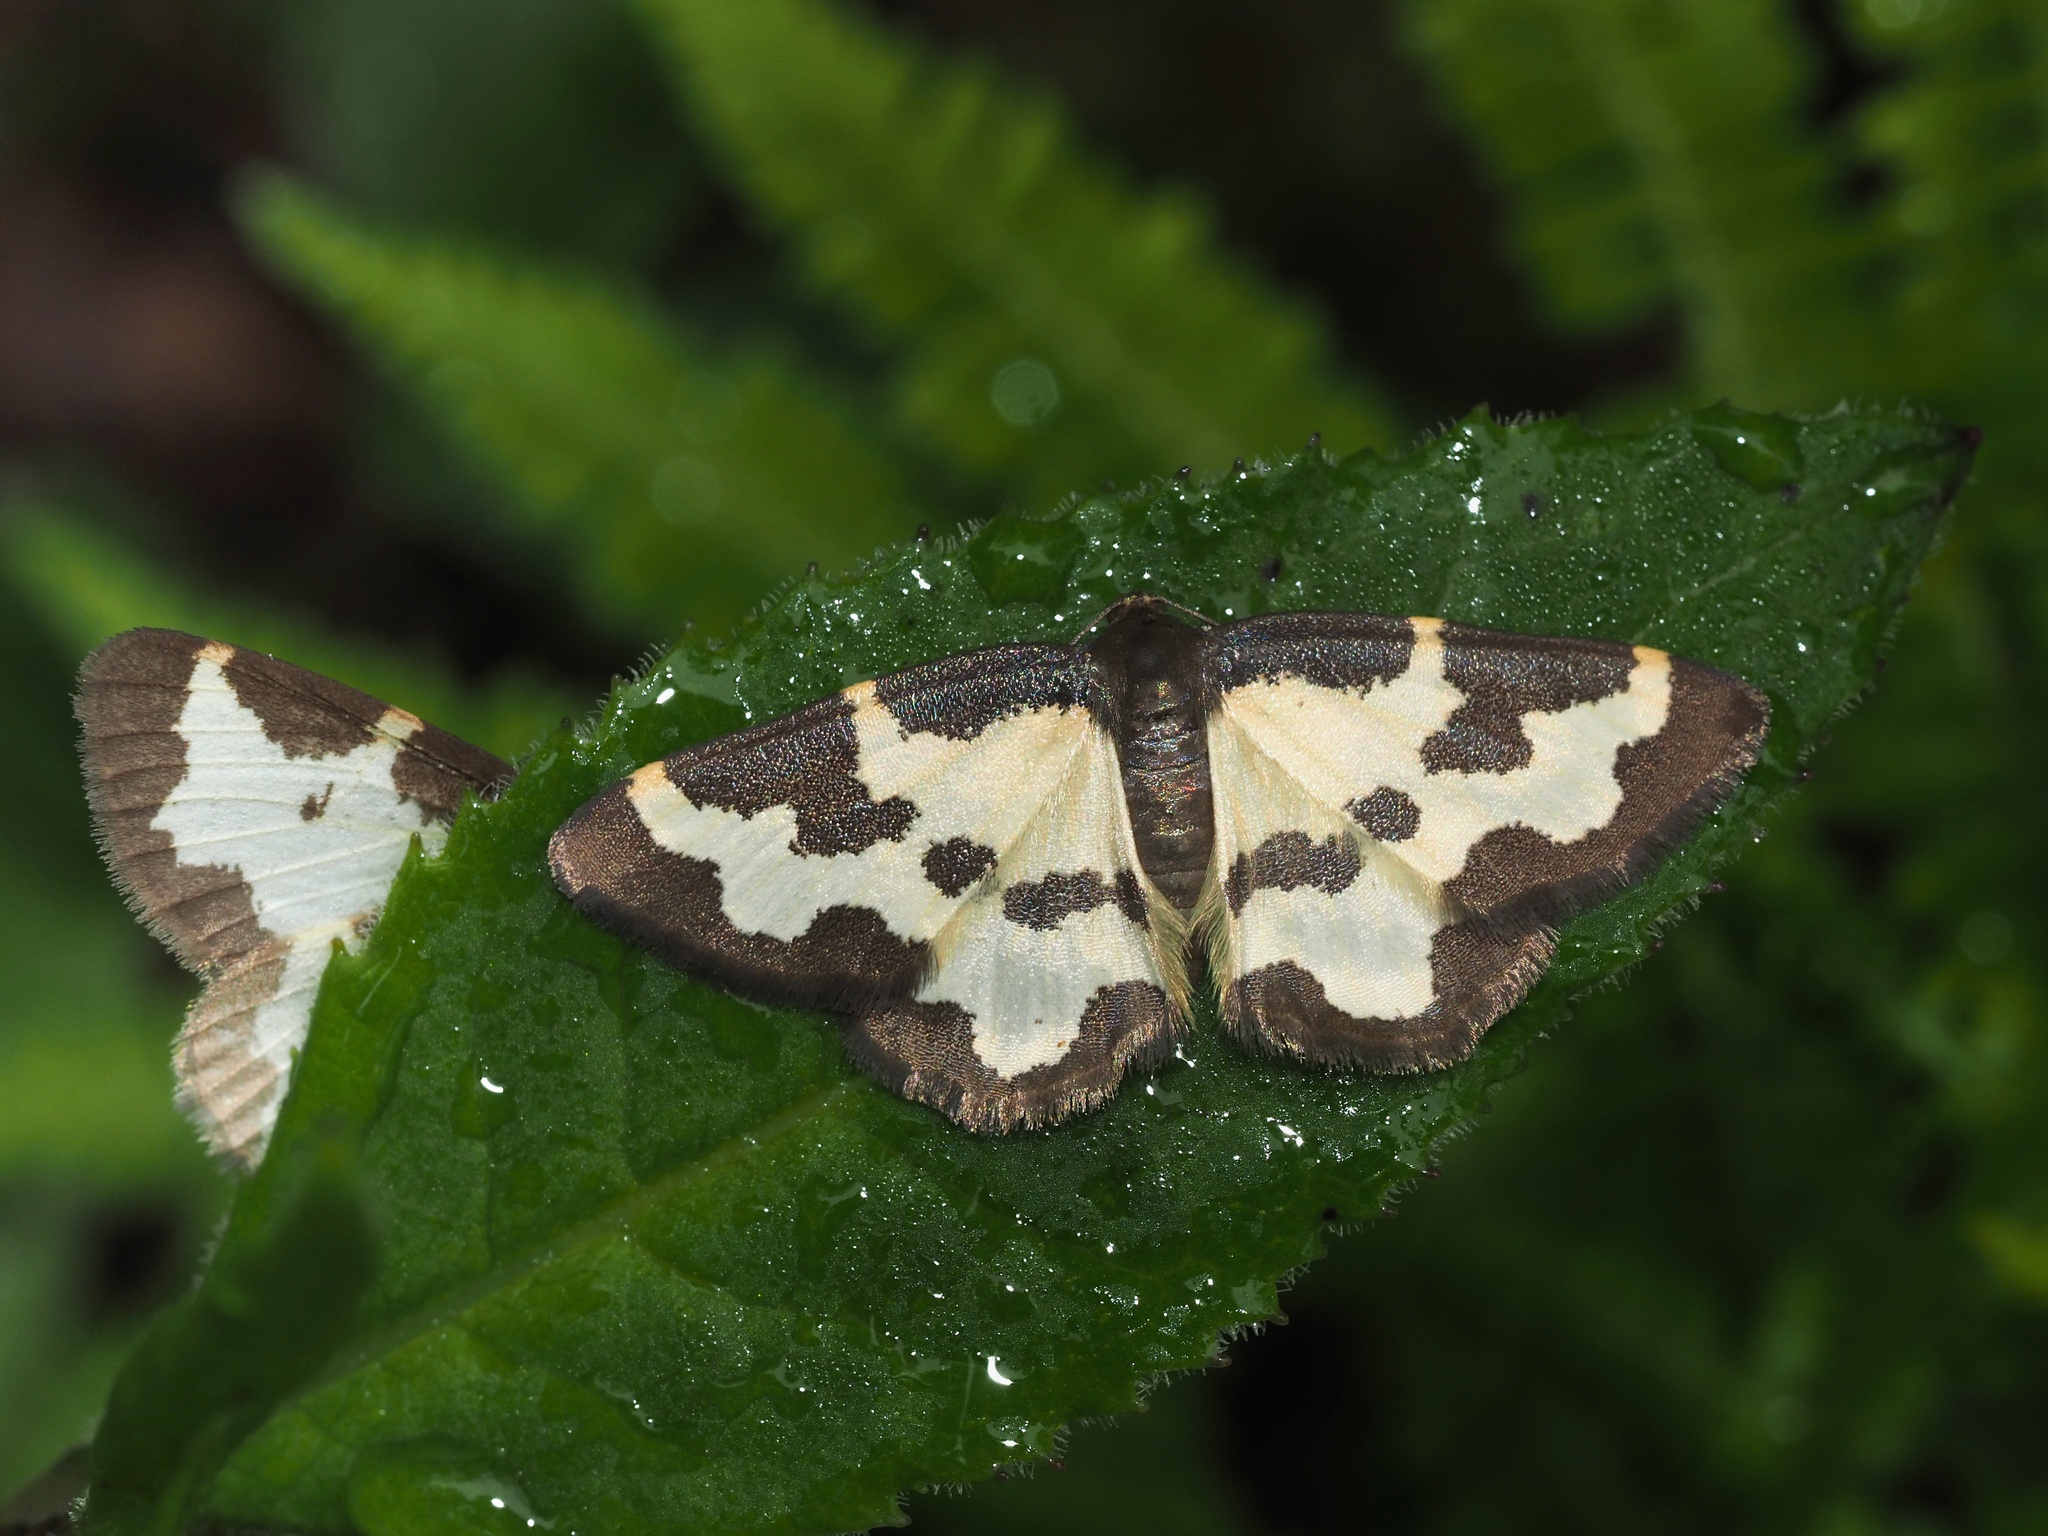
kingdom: Animalia
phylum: Arthropoda
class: Insecta
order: Lepidoptera
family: Geometridae
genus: Lomaspilis
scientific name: Lomaspilis marginata
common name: Clouded border
